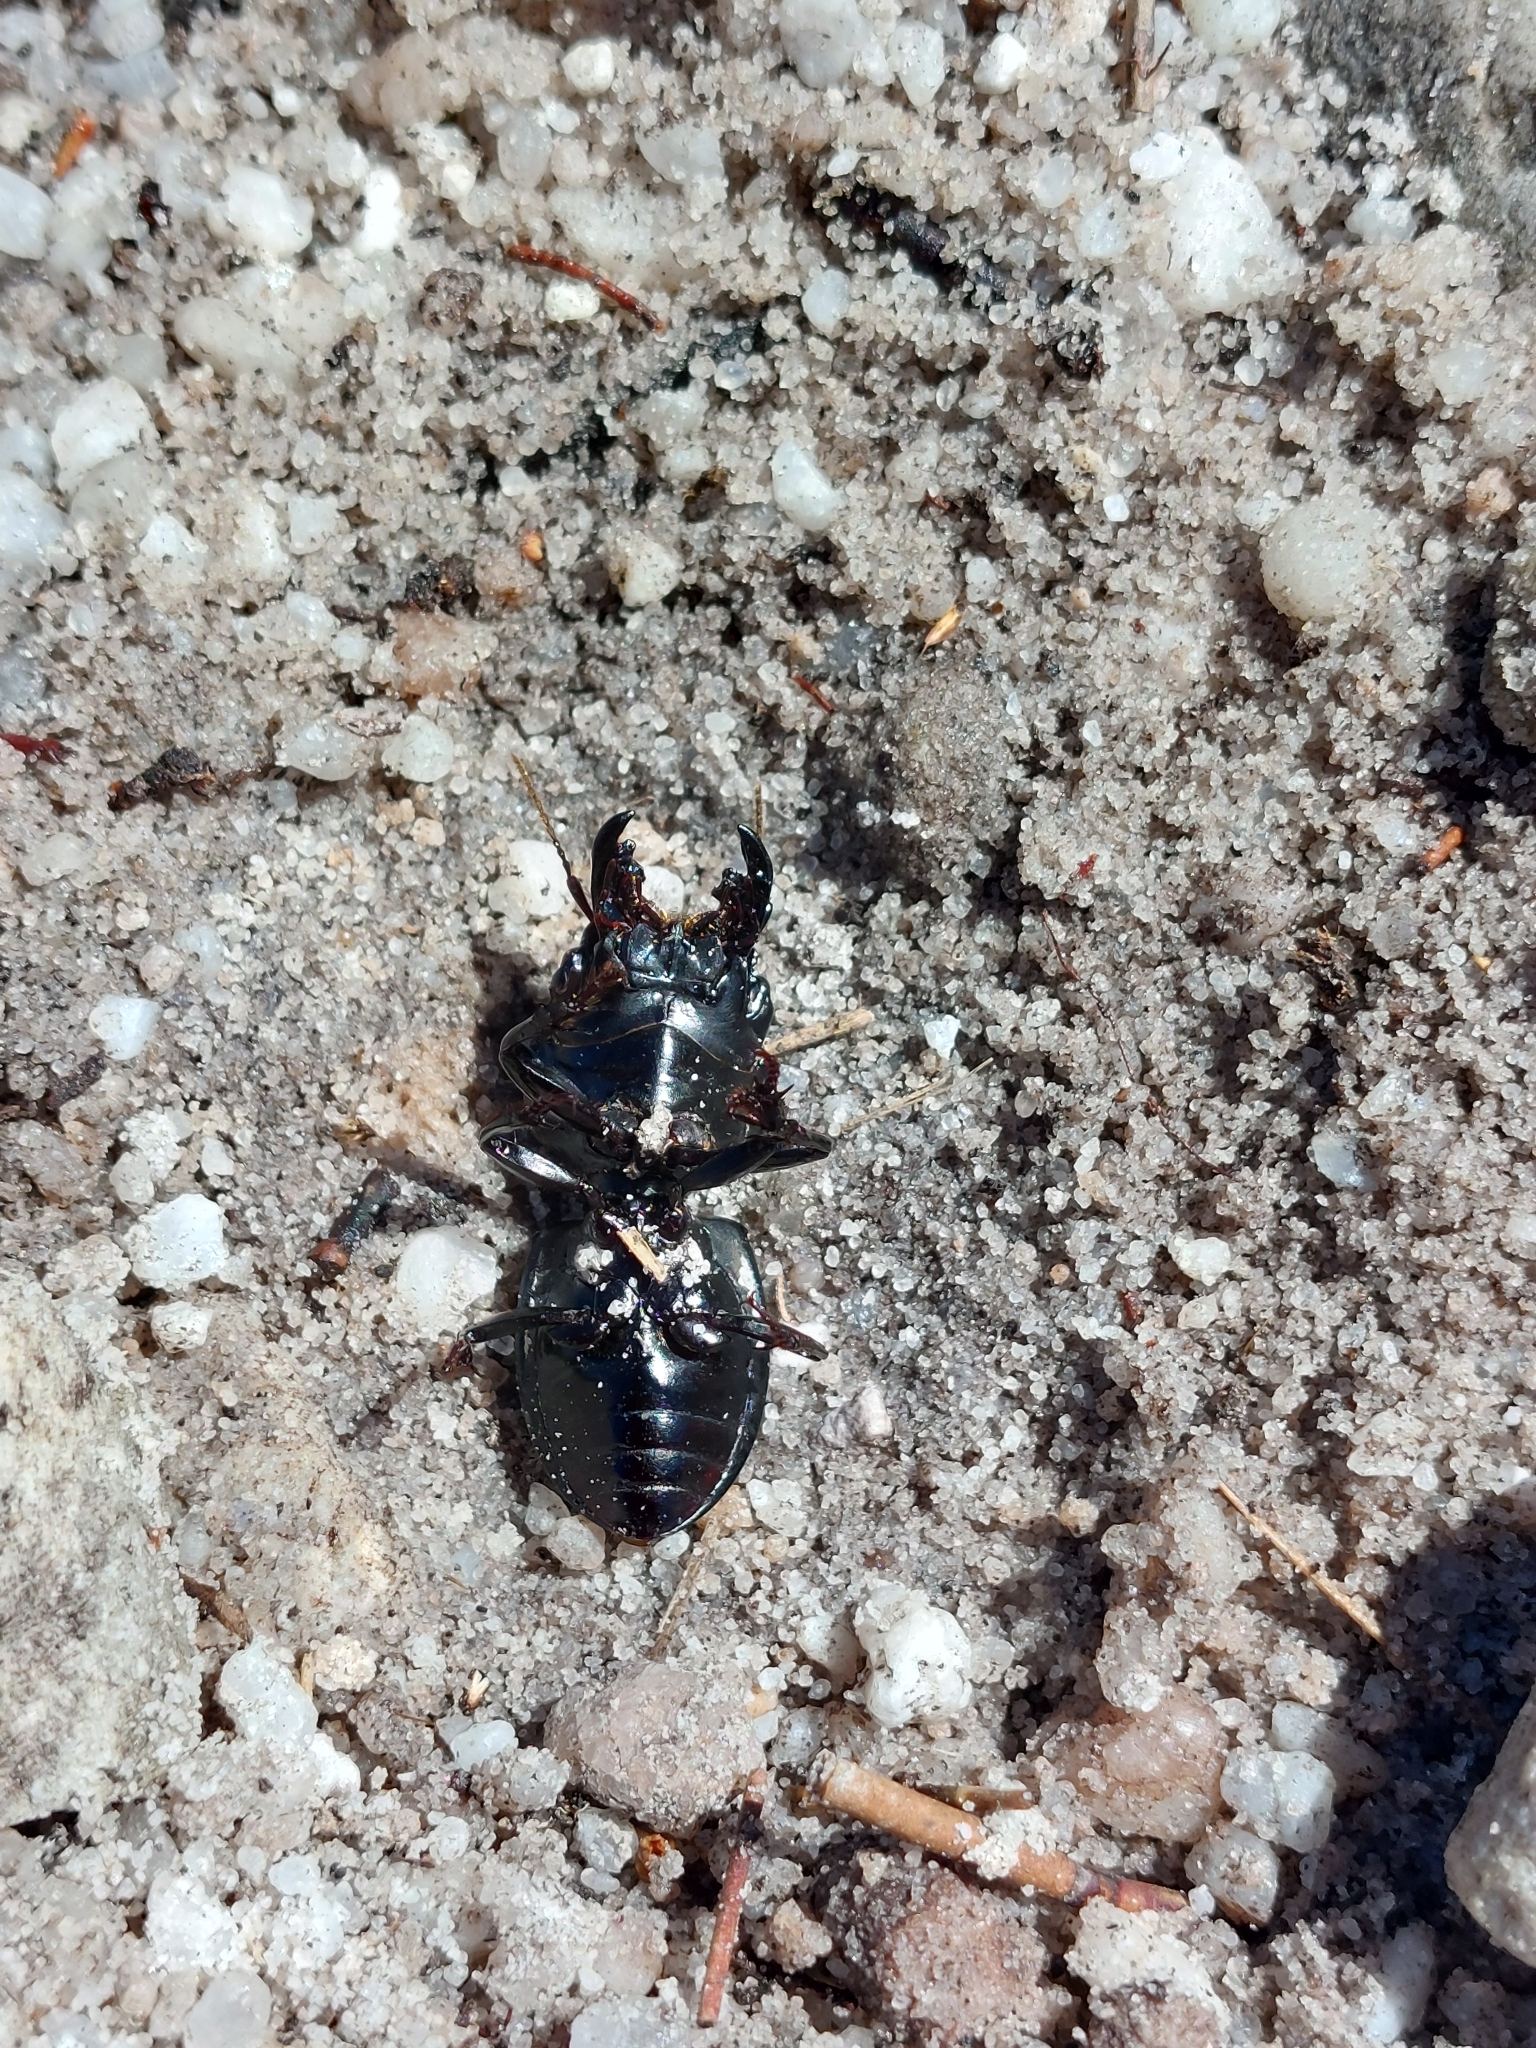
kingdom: Animalia
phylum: Arthropoda
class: Insecta
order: Coleoptera
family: Carabidae
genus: Pachyodontus
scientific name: Pachyodontus languidus
